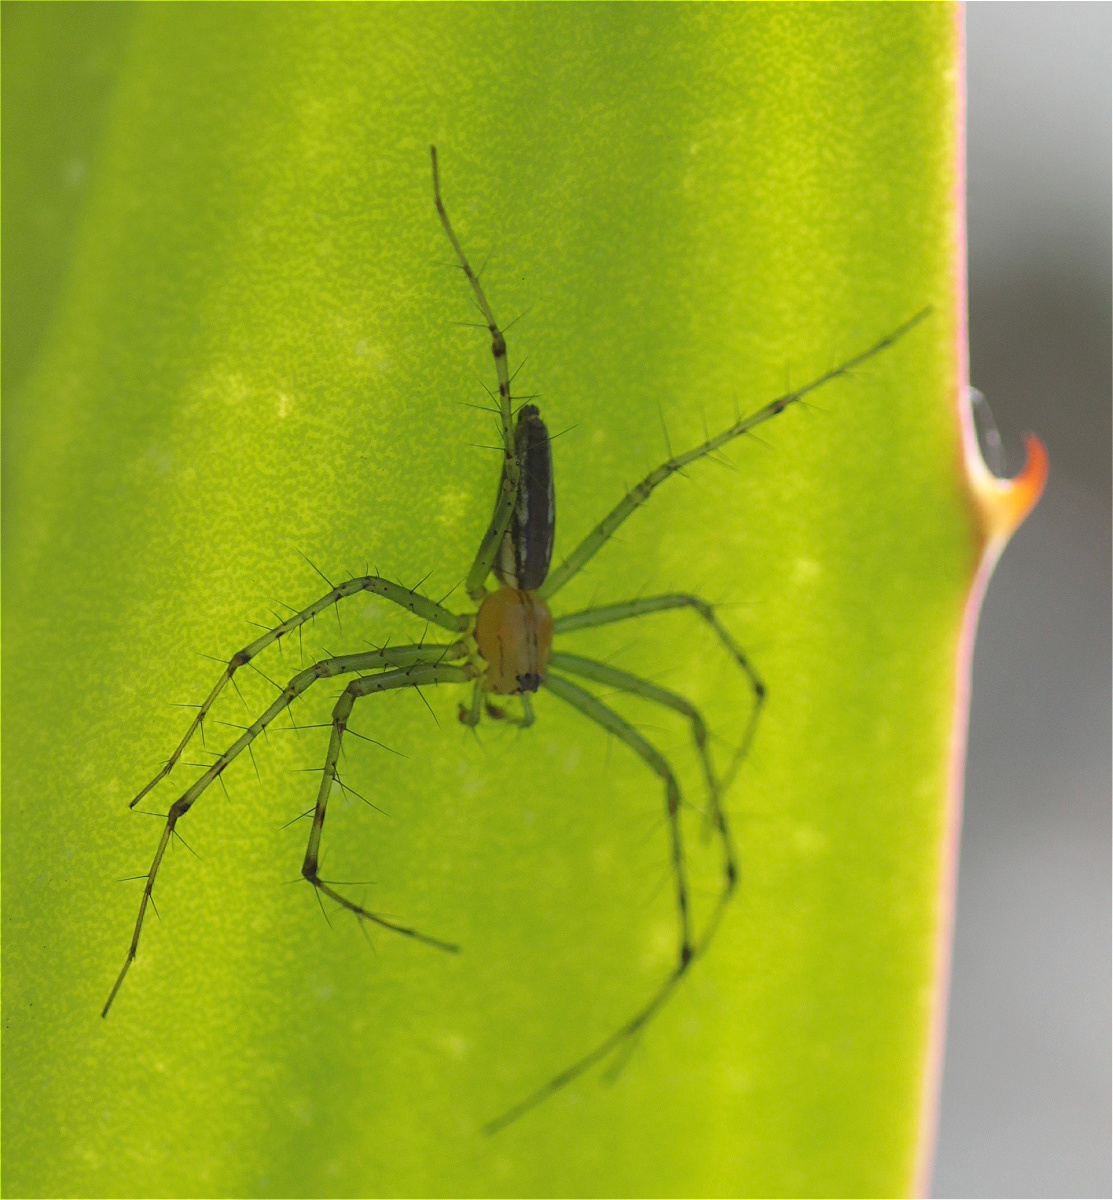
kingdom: Animalia
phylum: Arthropoda
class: Arachnida
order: Araneae
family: Oxyopidae
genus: Peucetia
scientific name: Peucetia rubrolineata
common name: Lynx spiders
